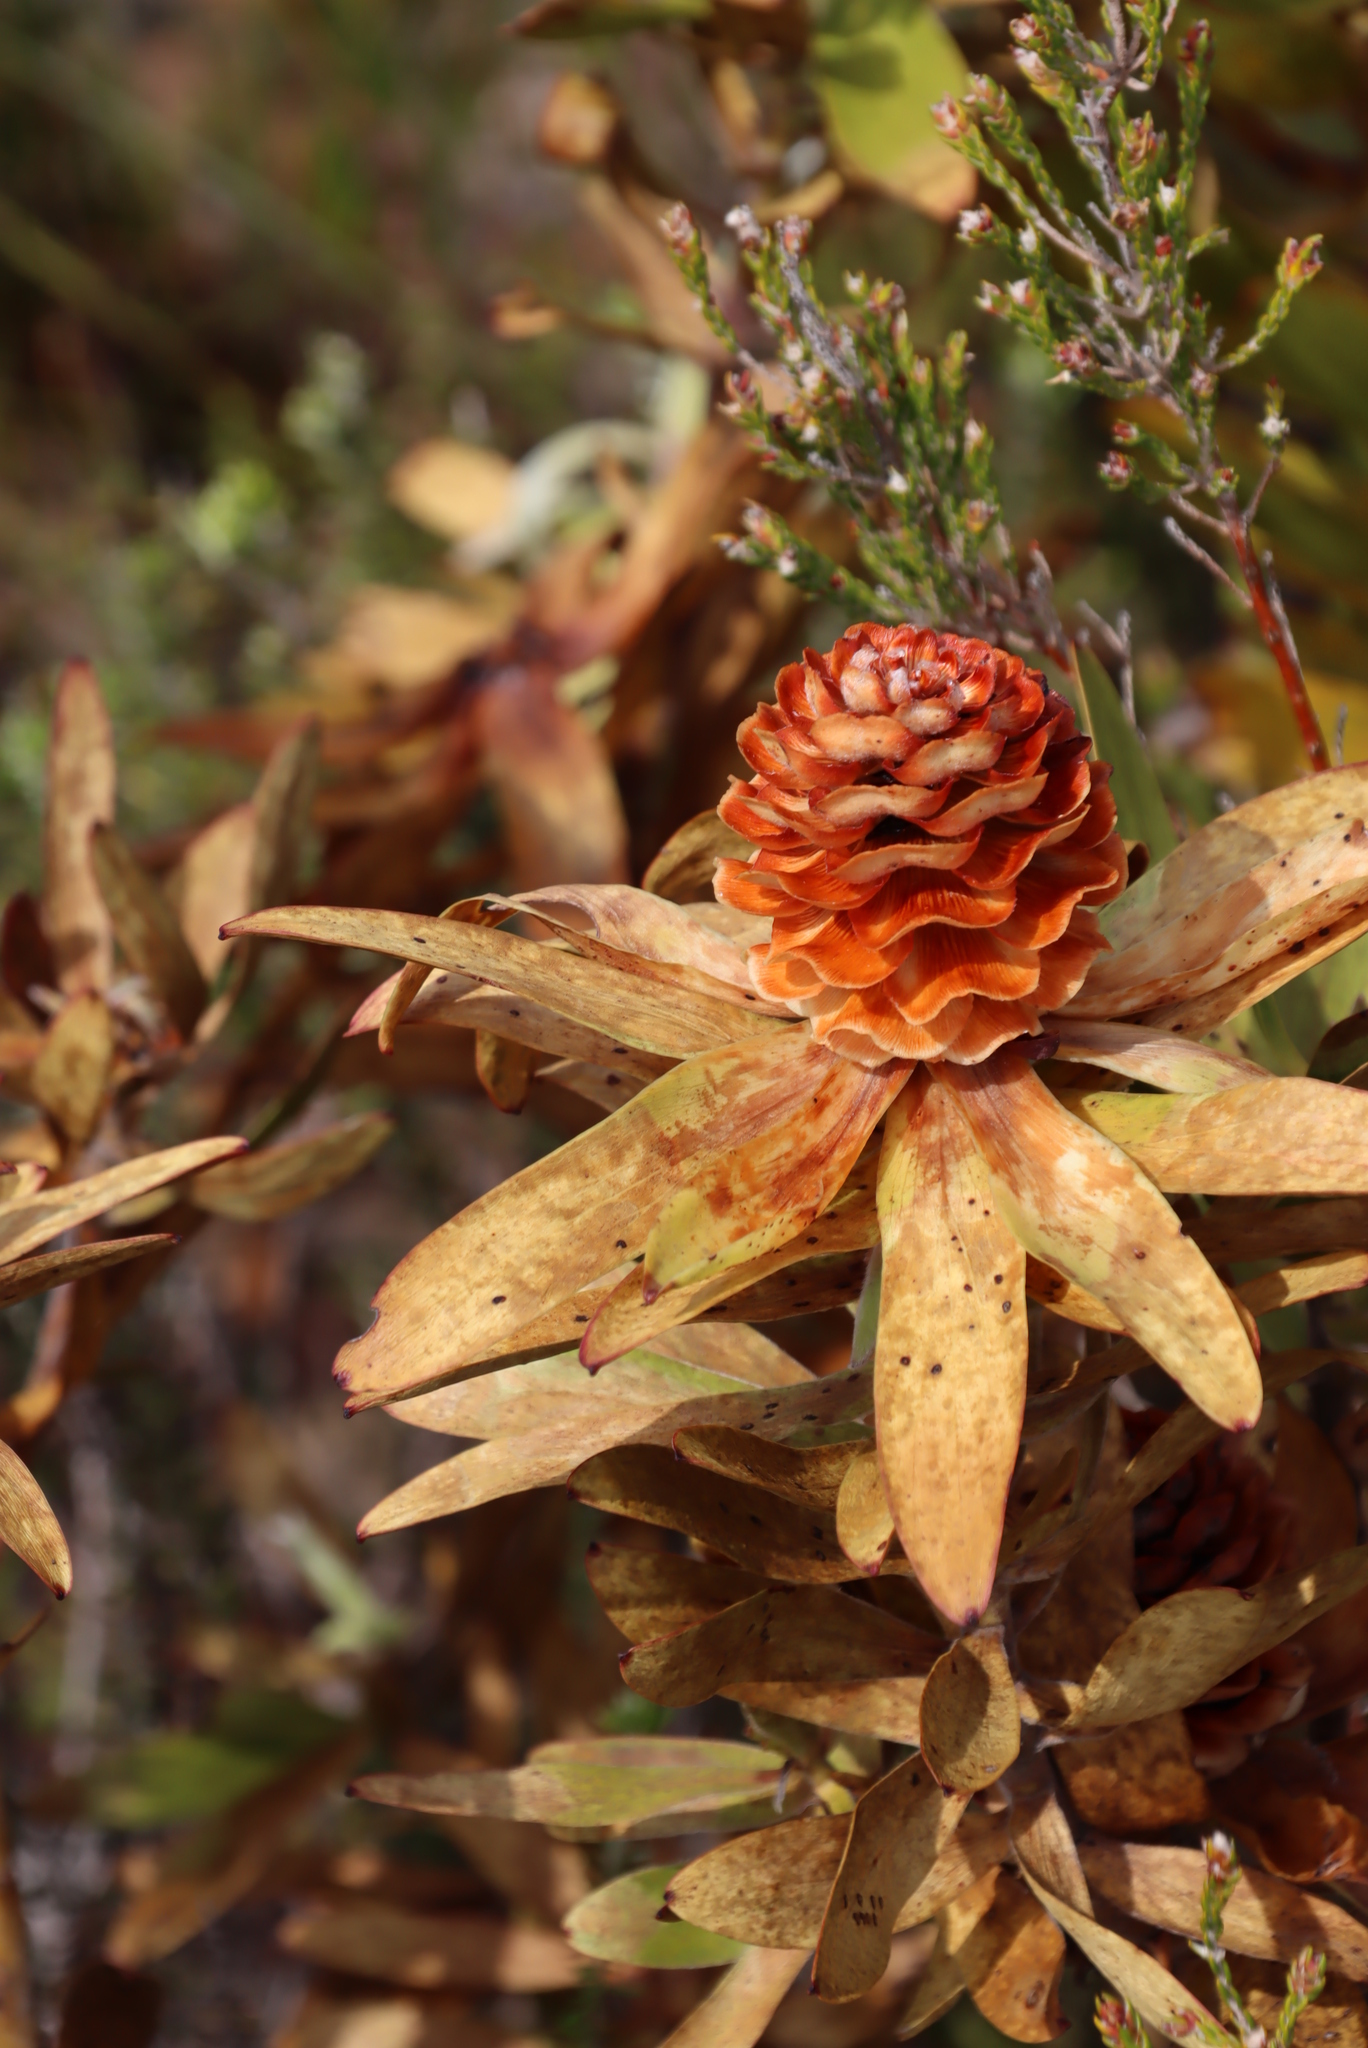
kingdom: Plantae
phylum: Tracheophyta
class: Magnoliopsida
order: Proteales
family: Proteaceae
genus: Leucadendron
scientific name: Leucadendron laureolum
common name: Golden sunshinebush
